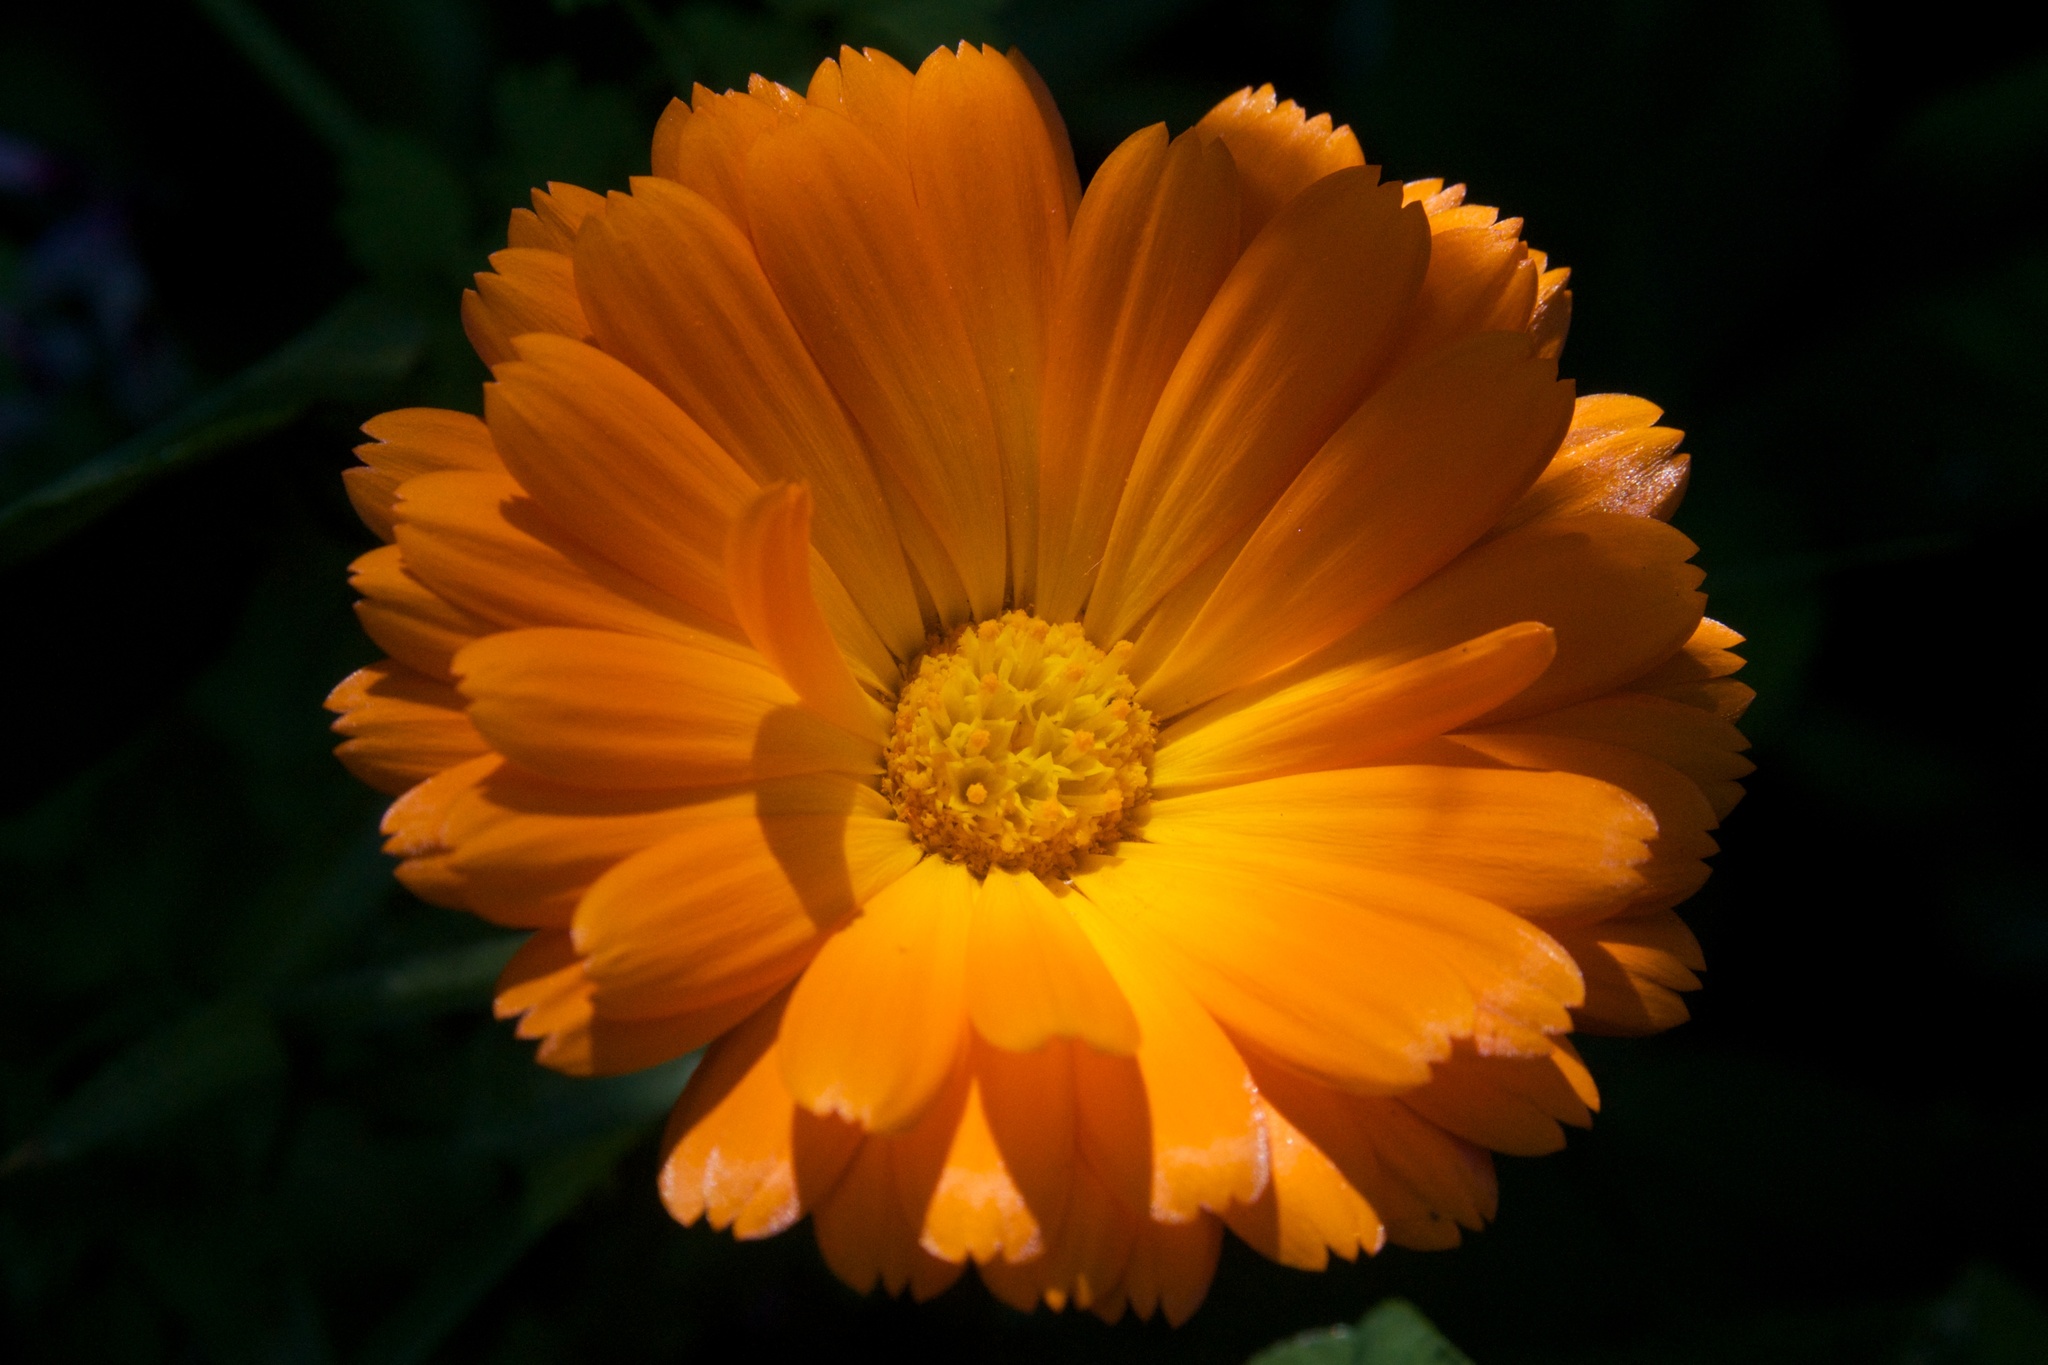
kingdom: Plantae
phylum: Tracheophyta
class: Magnoliopsida
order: Asterales
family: Asteraceae
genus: Calendula
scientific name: Calendula officinalis
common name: Pot marigold
